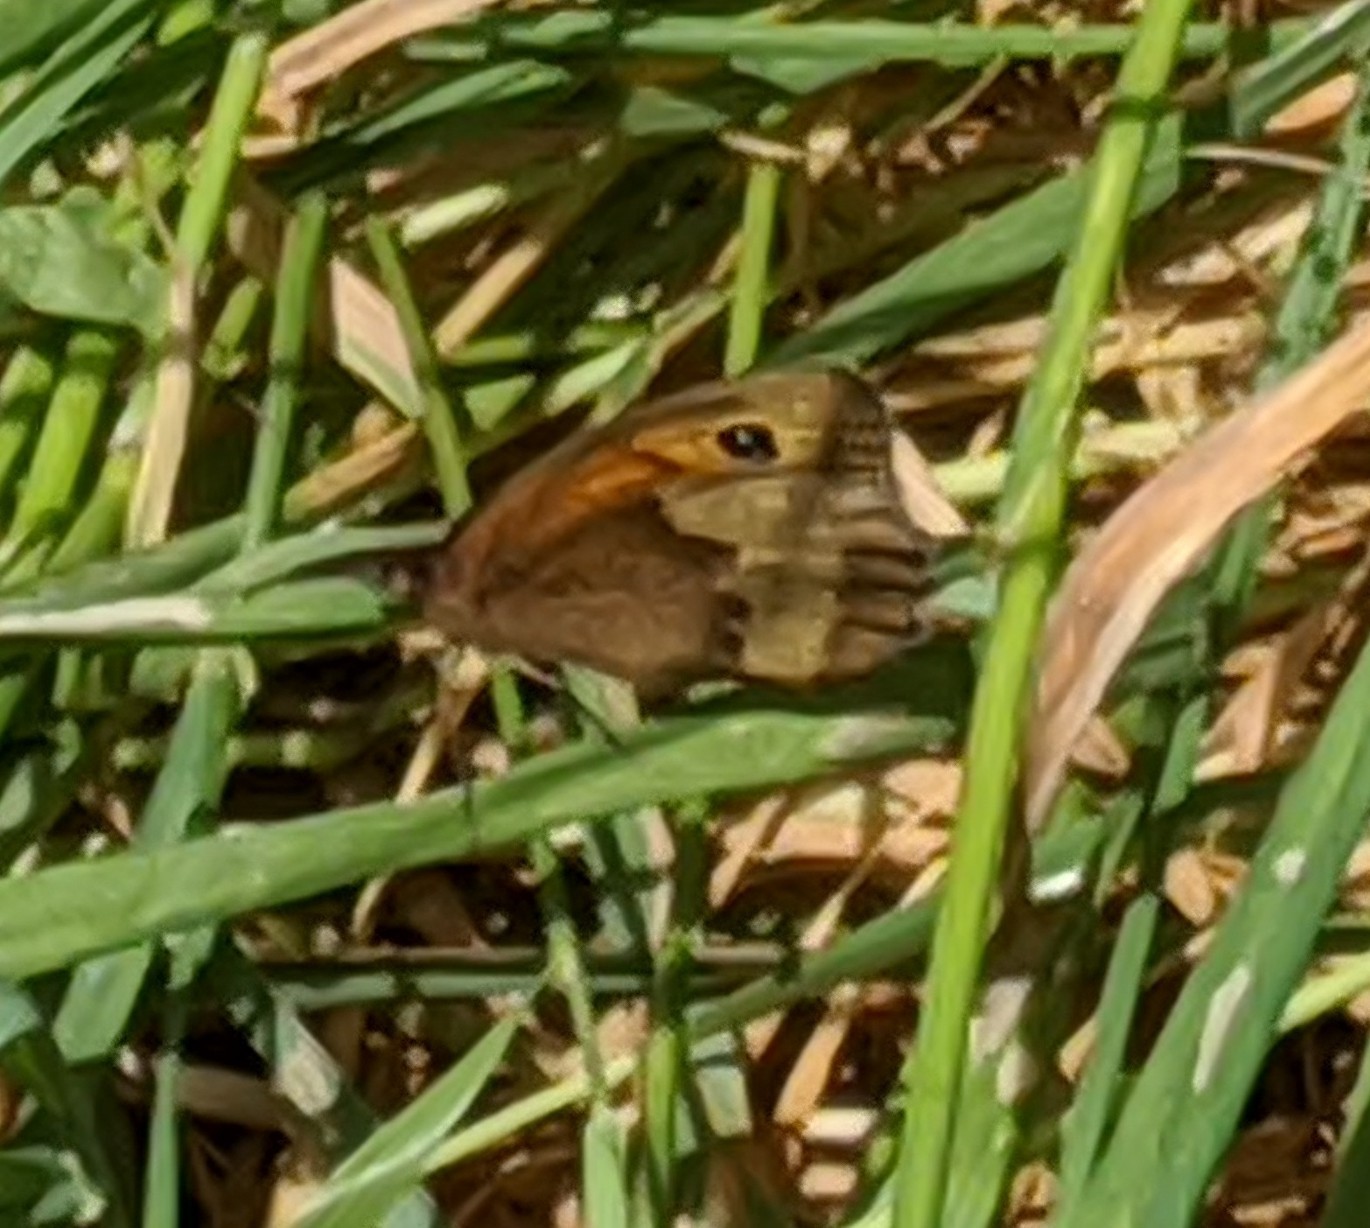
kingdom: Animalia
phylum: Arthropoda
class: Insecta
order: Lepidoptera
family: Nymphalidae
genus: Maniola
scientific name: Maniola jurtina
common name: Meadow brown
